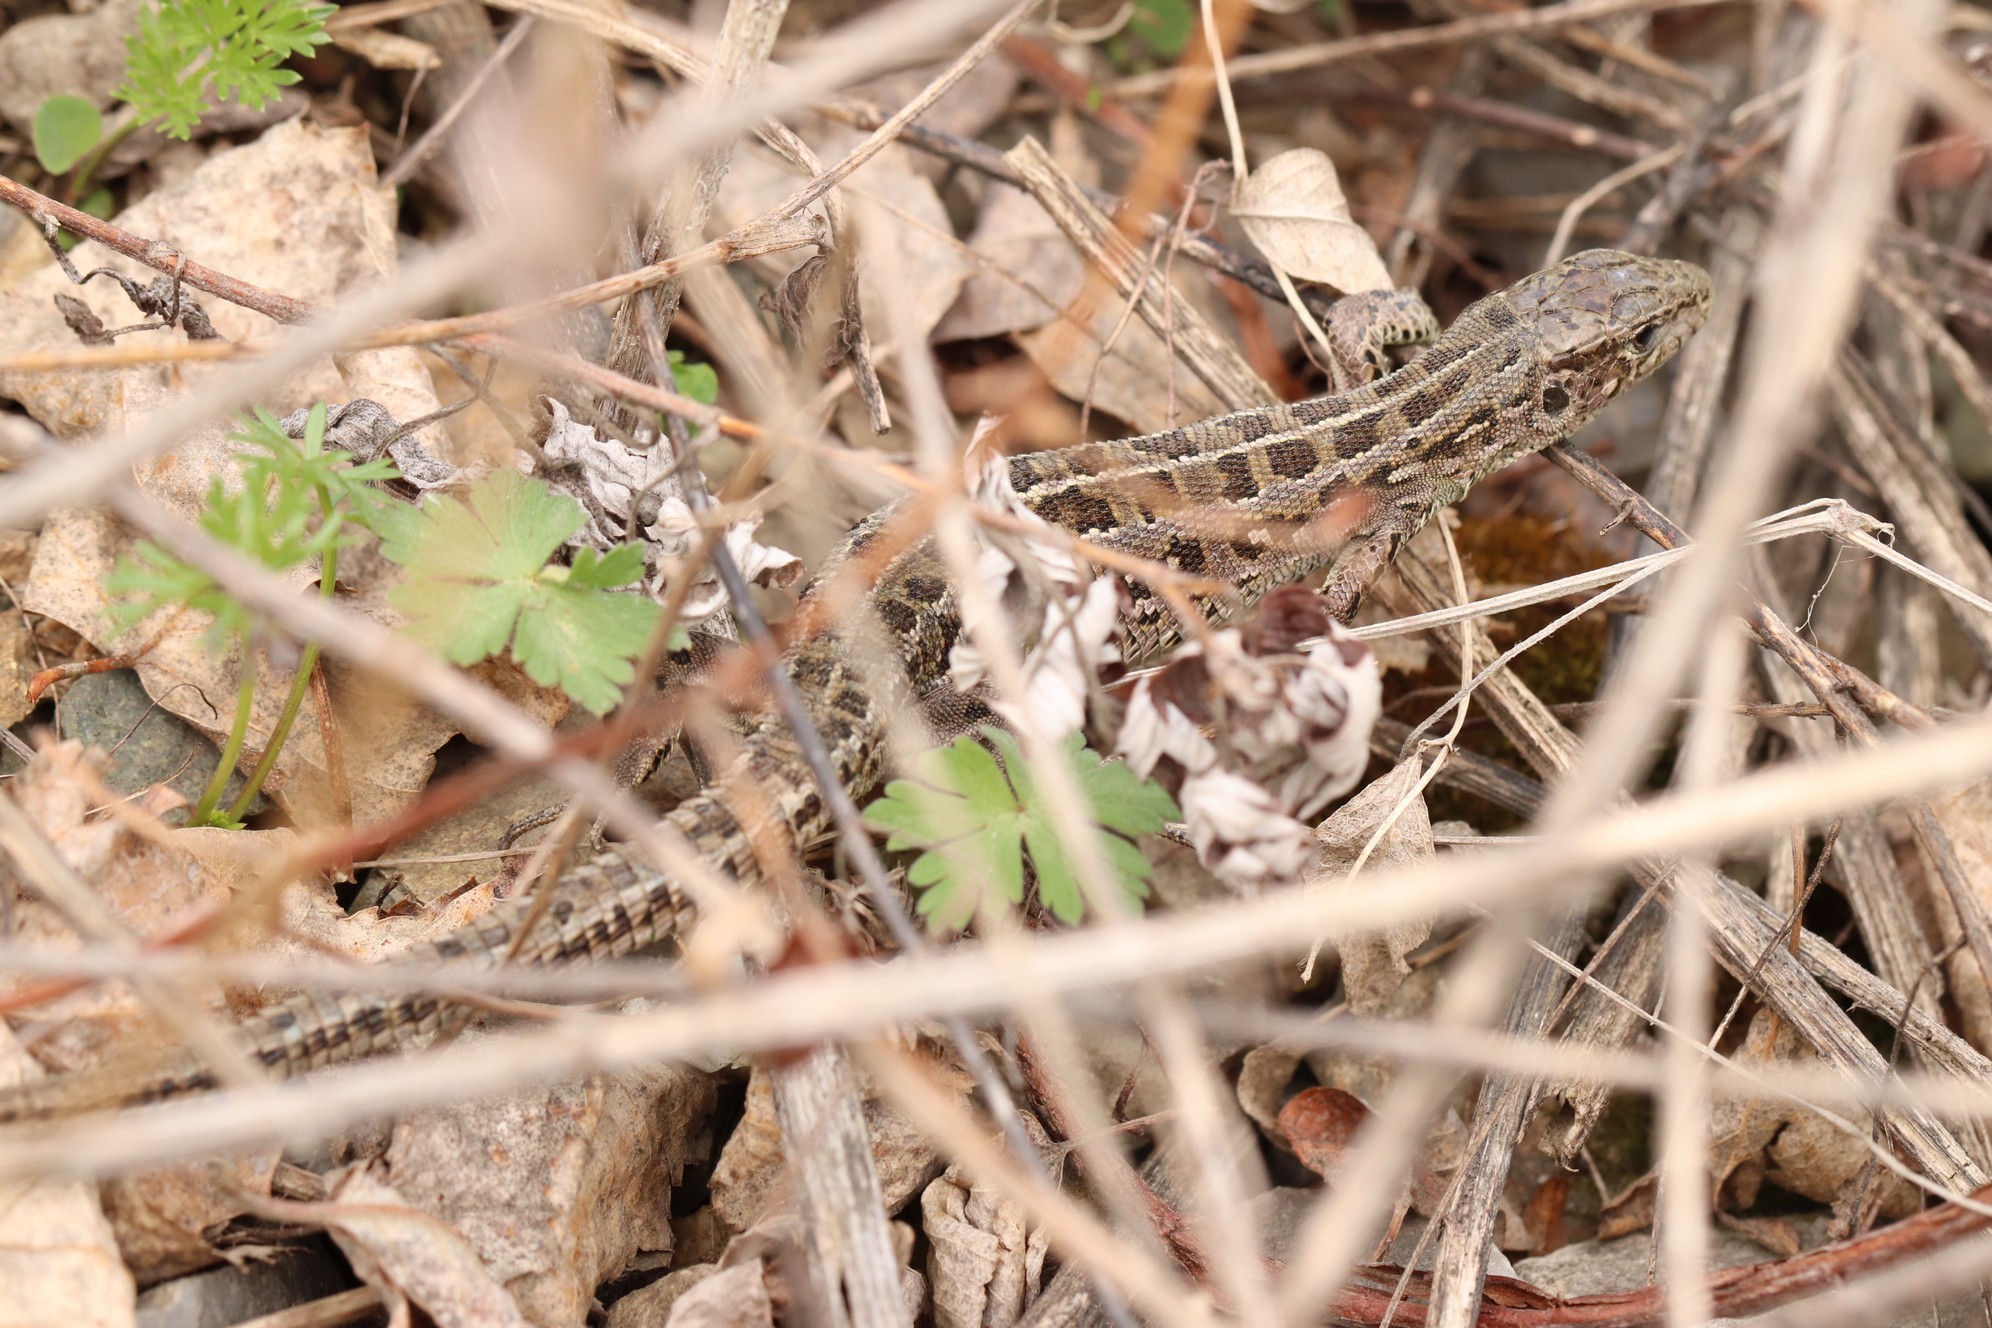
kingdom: Animalia
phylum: Chordata
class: Squamata
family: Lacertidae
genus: Lacerta
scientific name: Lacerta agilis
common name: Sand lizard
